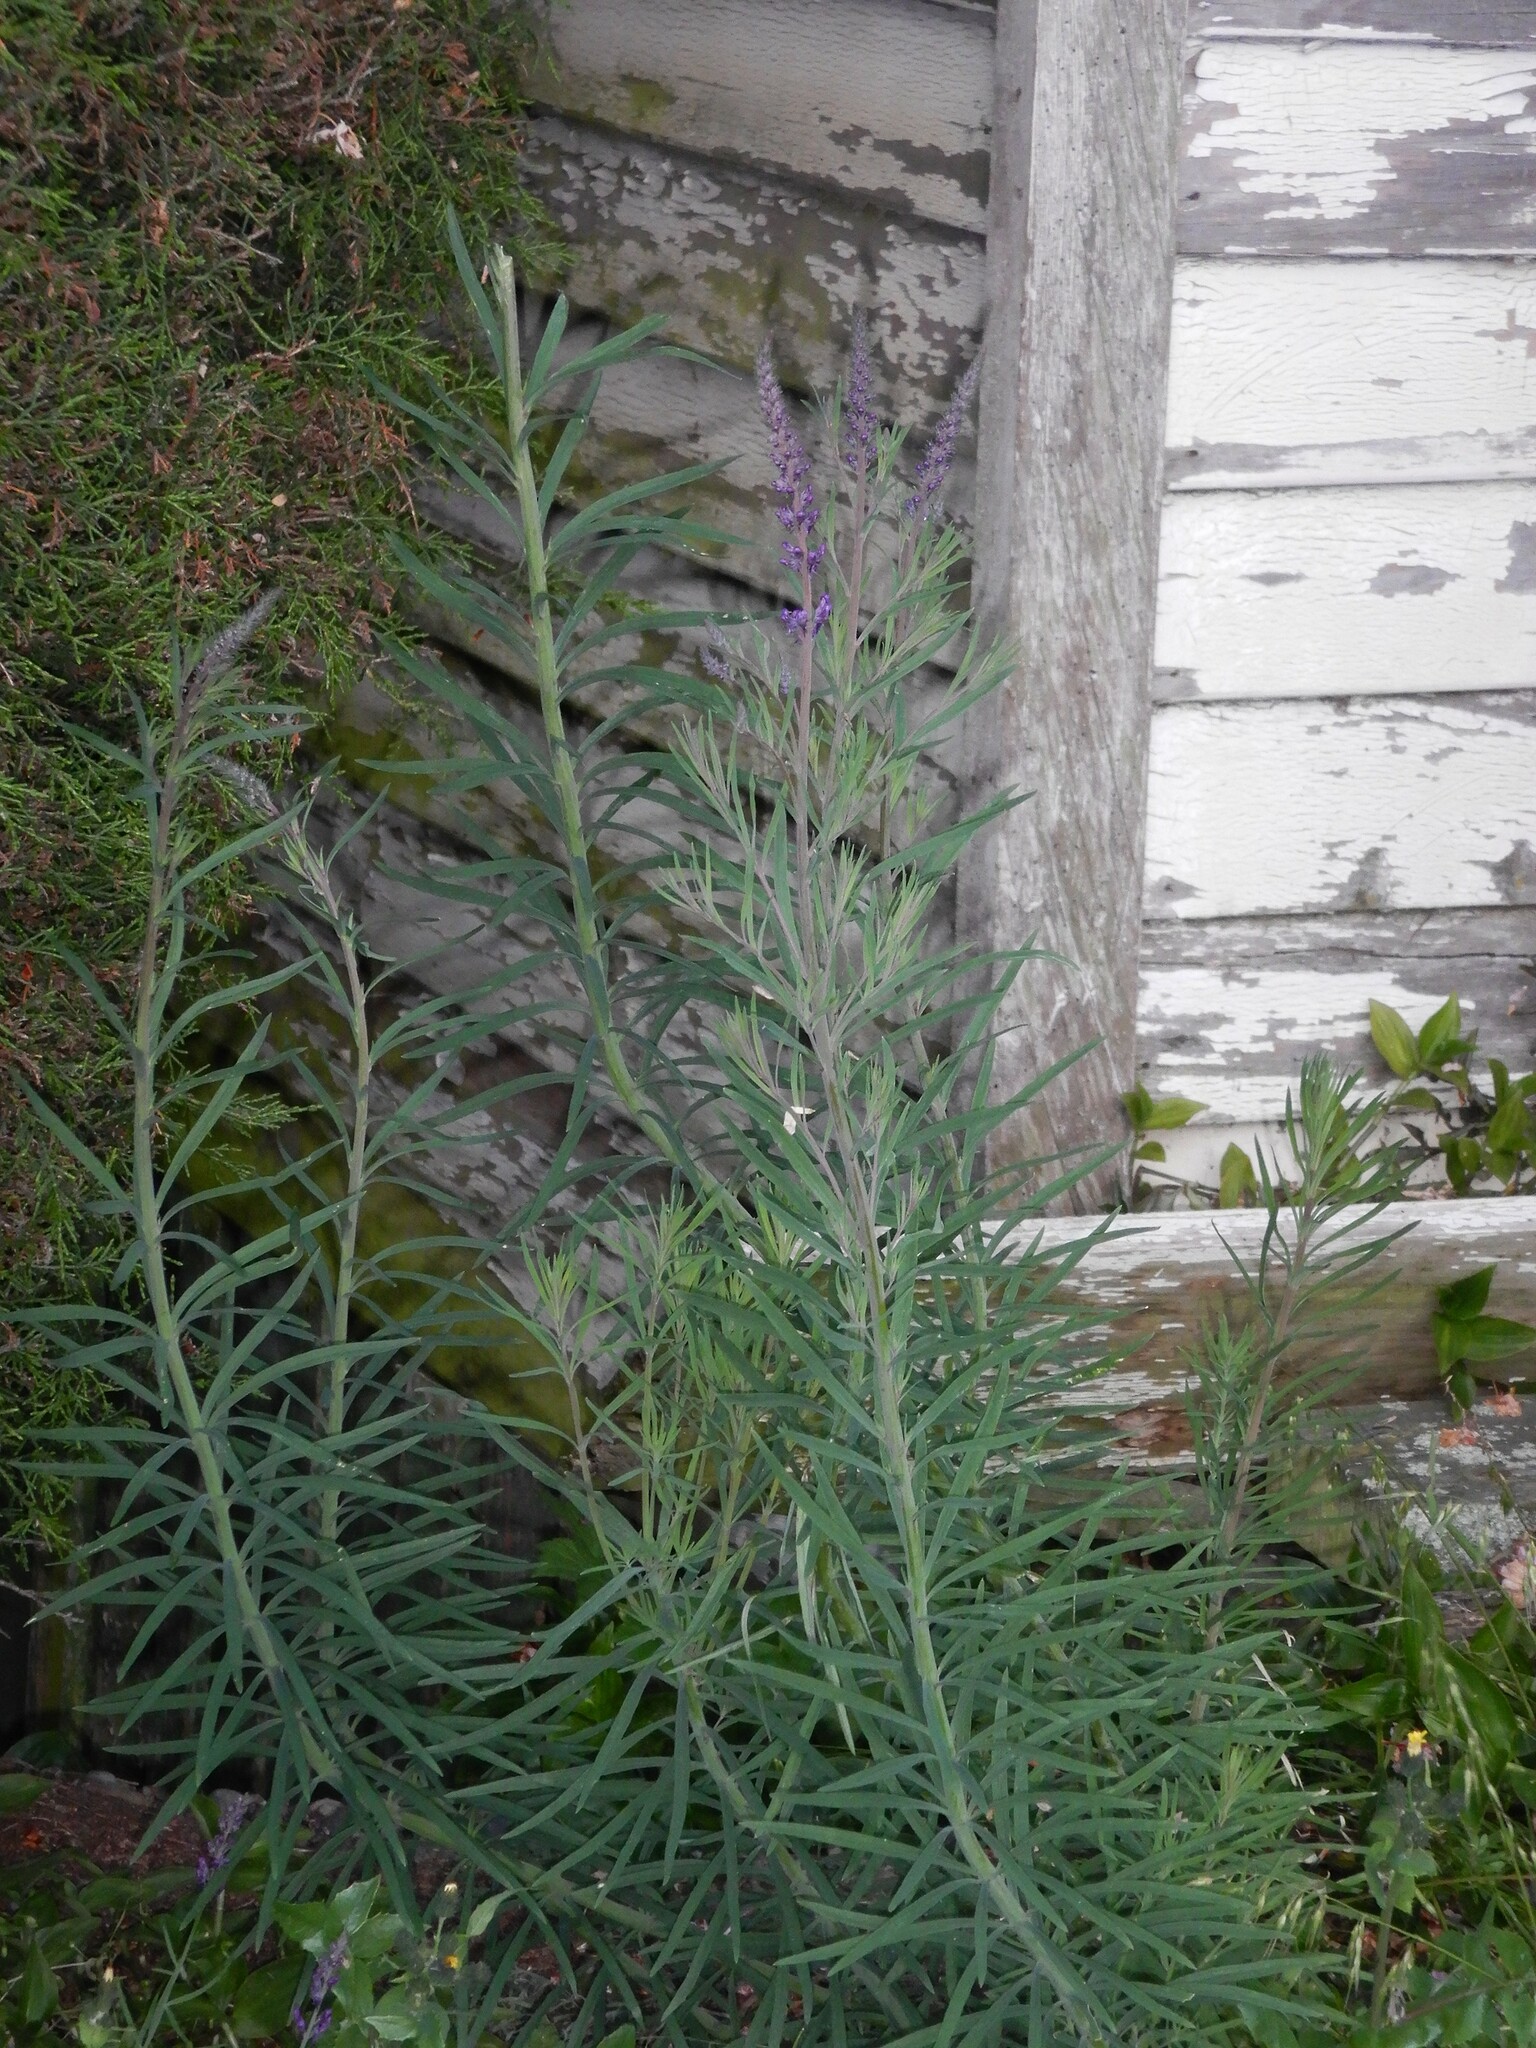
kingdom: Plantae
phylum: Tracheophyta
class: Magnoliopsida
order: Lamiales
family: Plantaginaceae
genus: Linaria
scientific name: Linaria purpurea
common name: Purple toadflax
